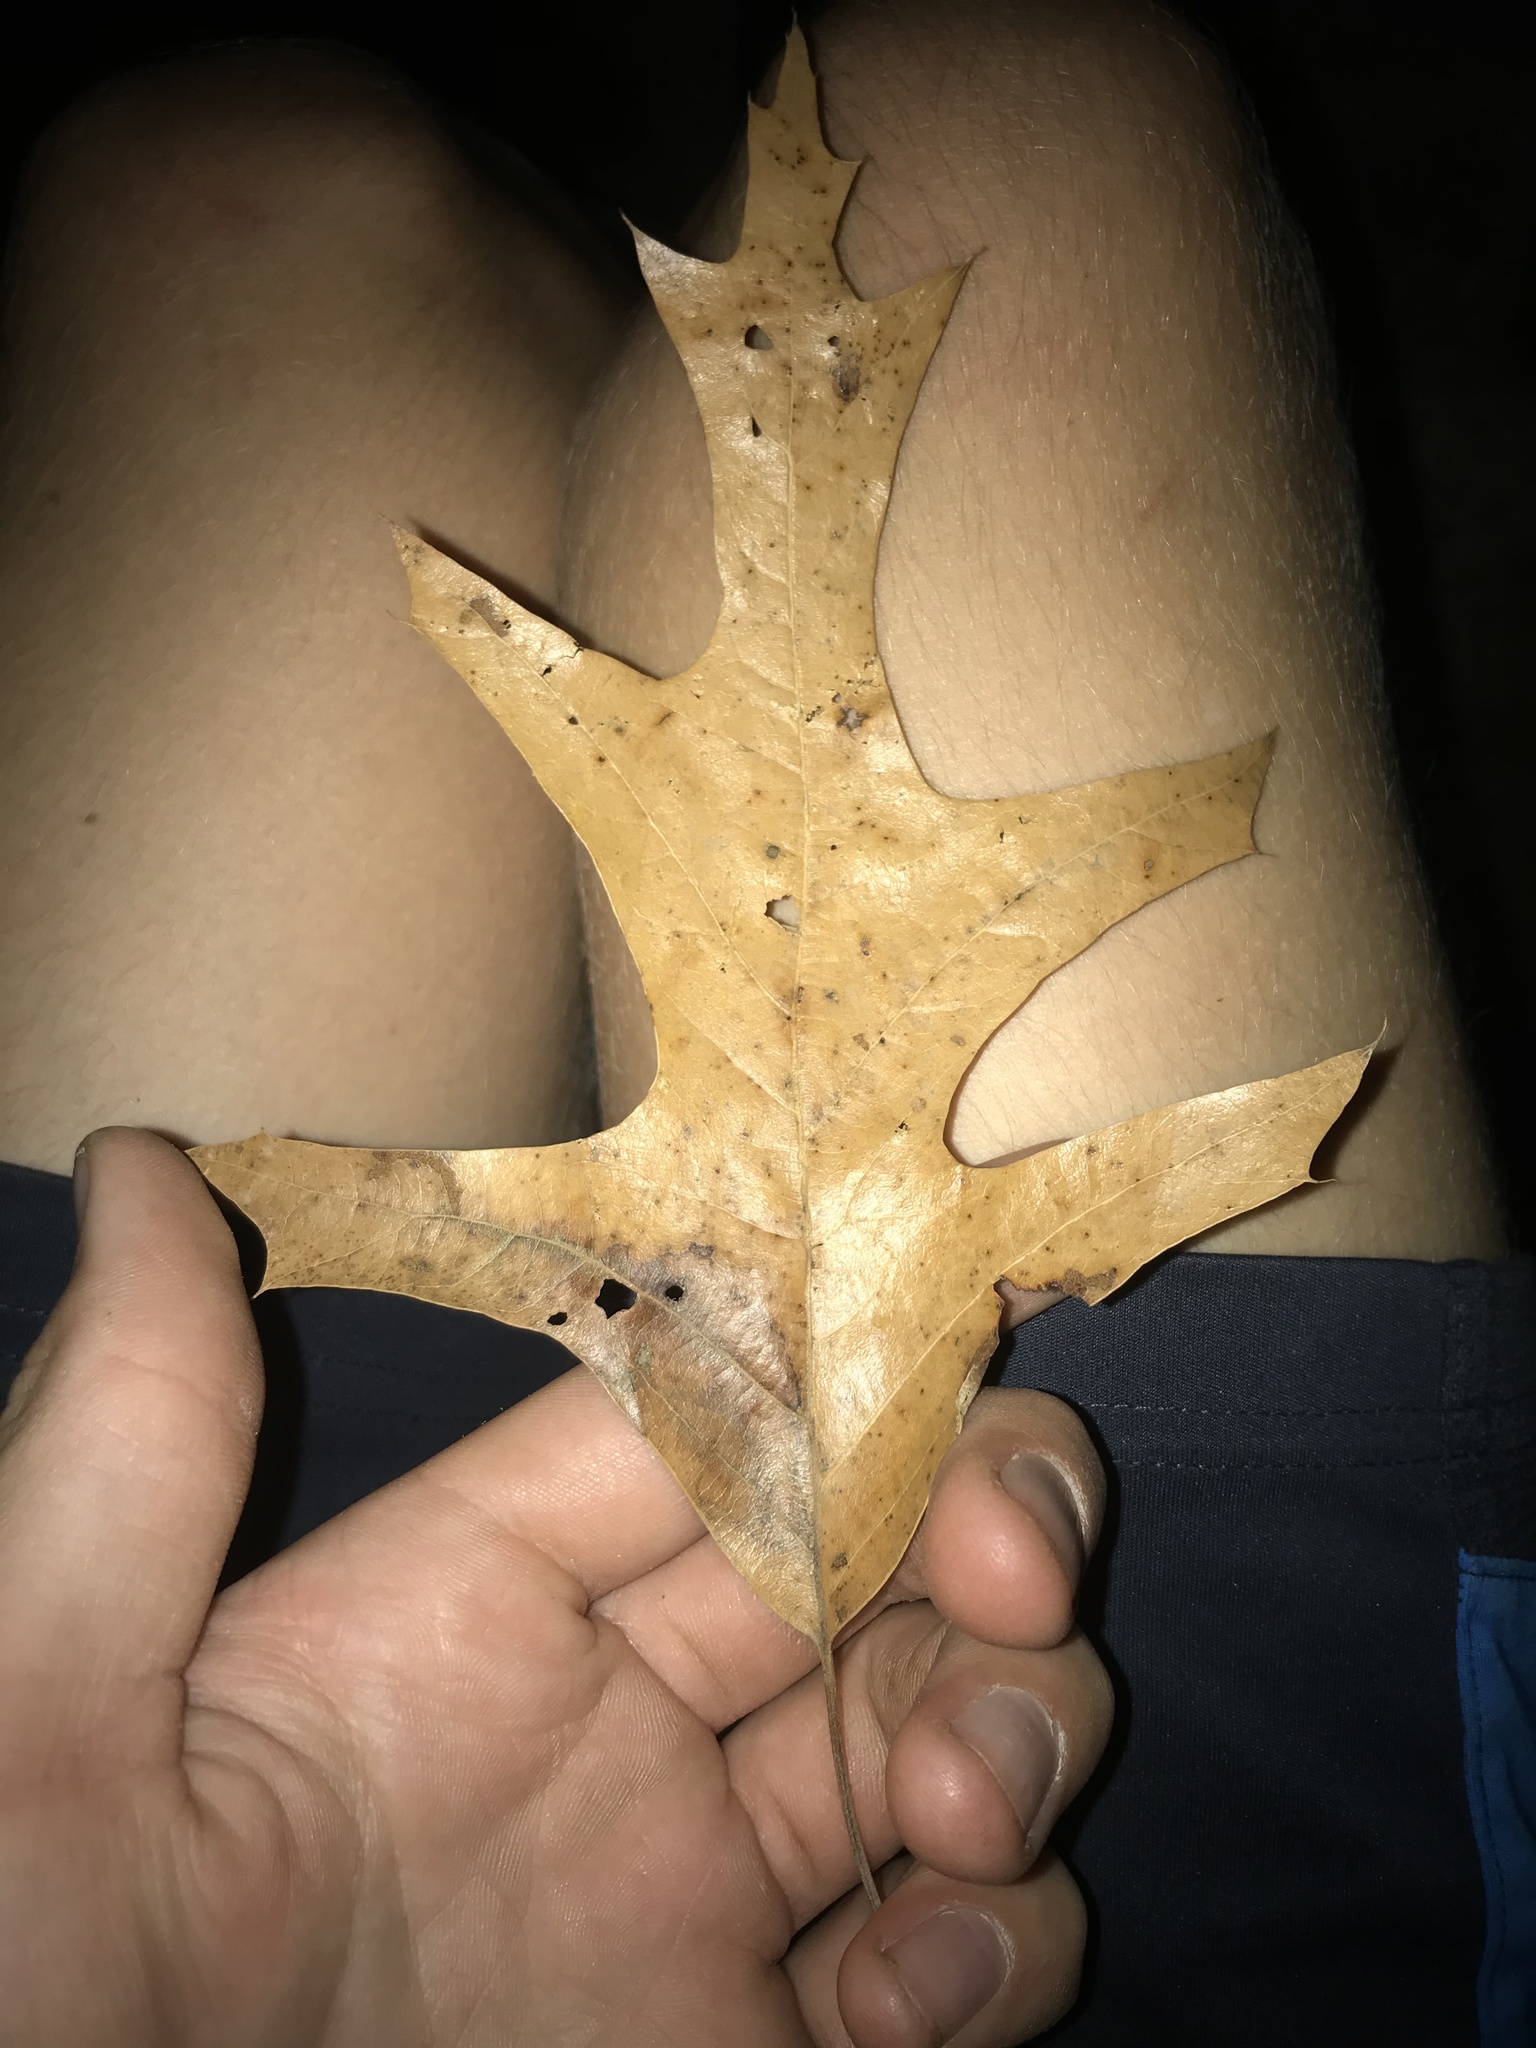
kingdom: Plantae
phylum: Tracheophyta
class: Magnoliopsida
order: Fagales
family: Fagaceae
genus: Quercus
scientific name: Quercus falcata
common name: Southern red oak
